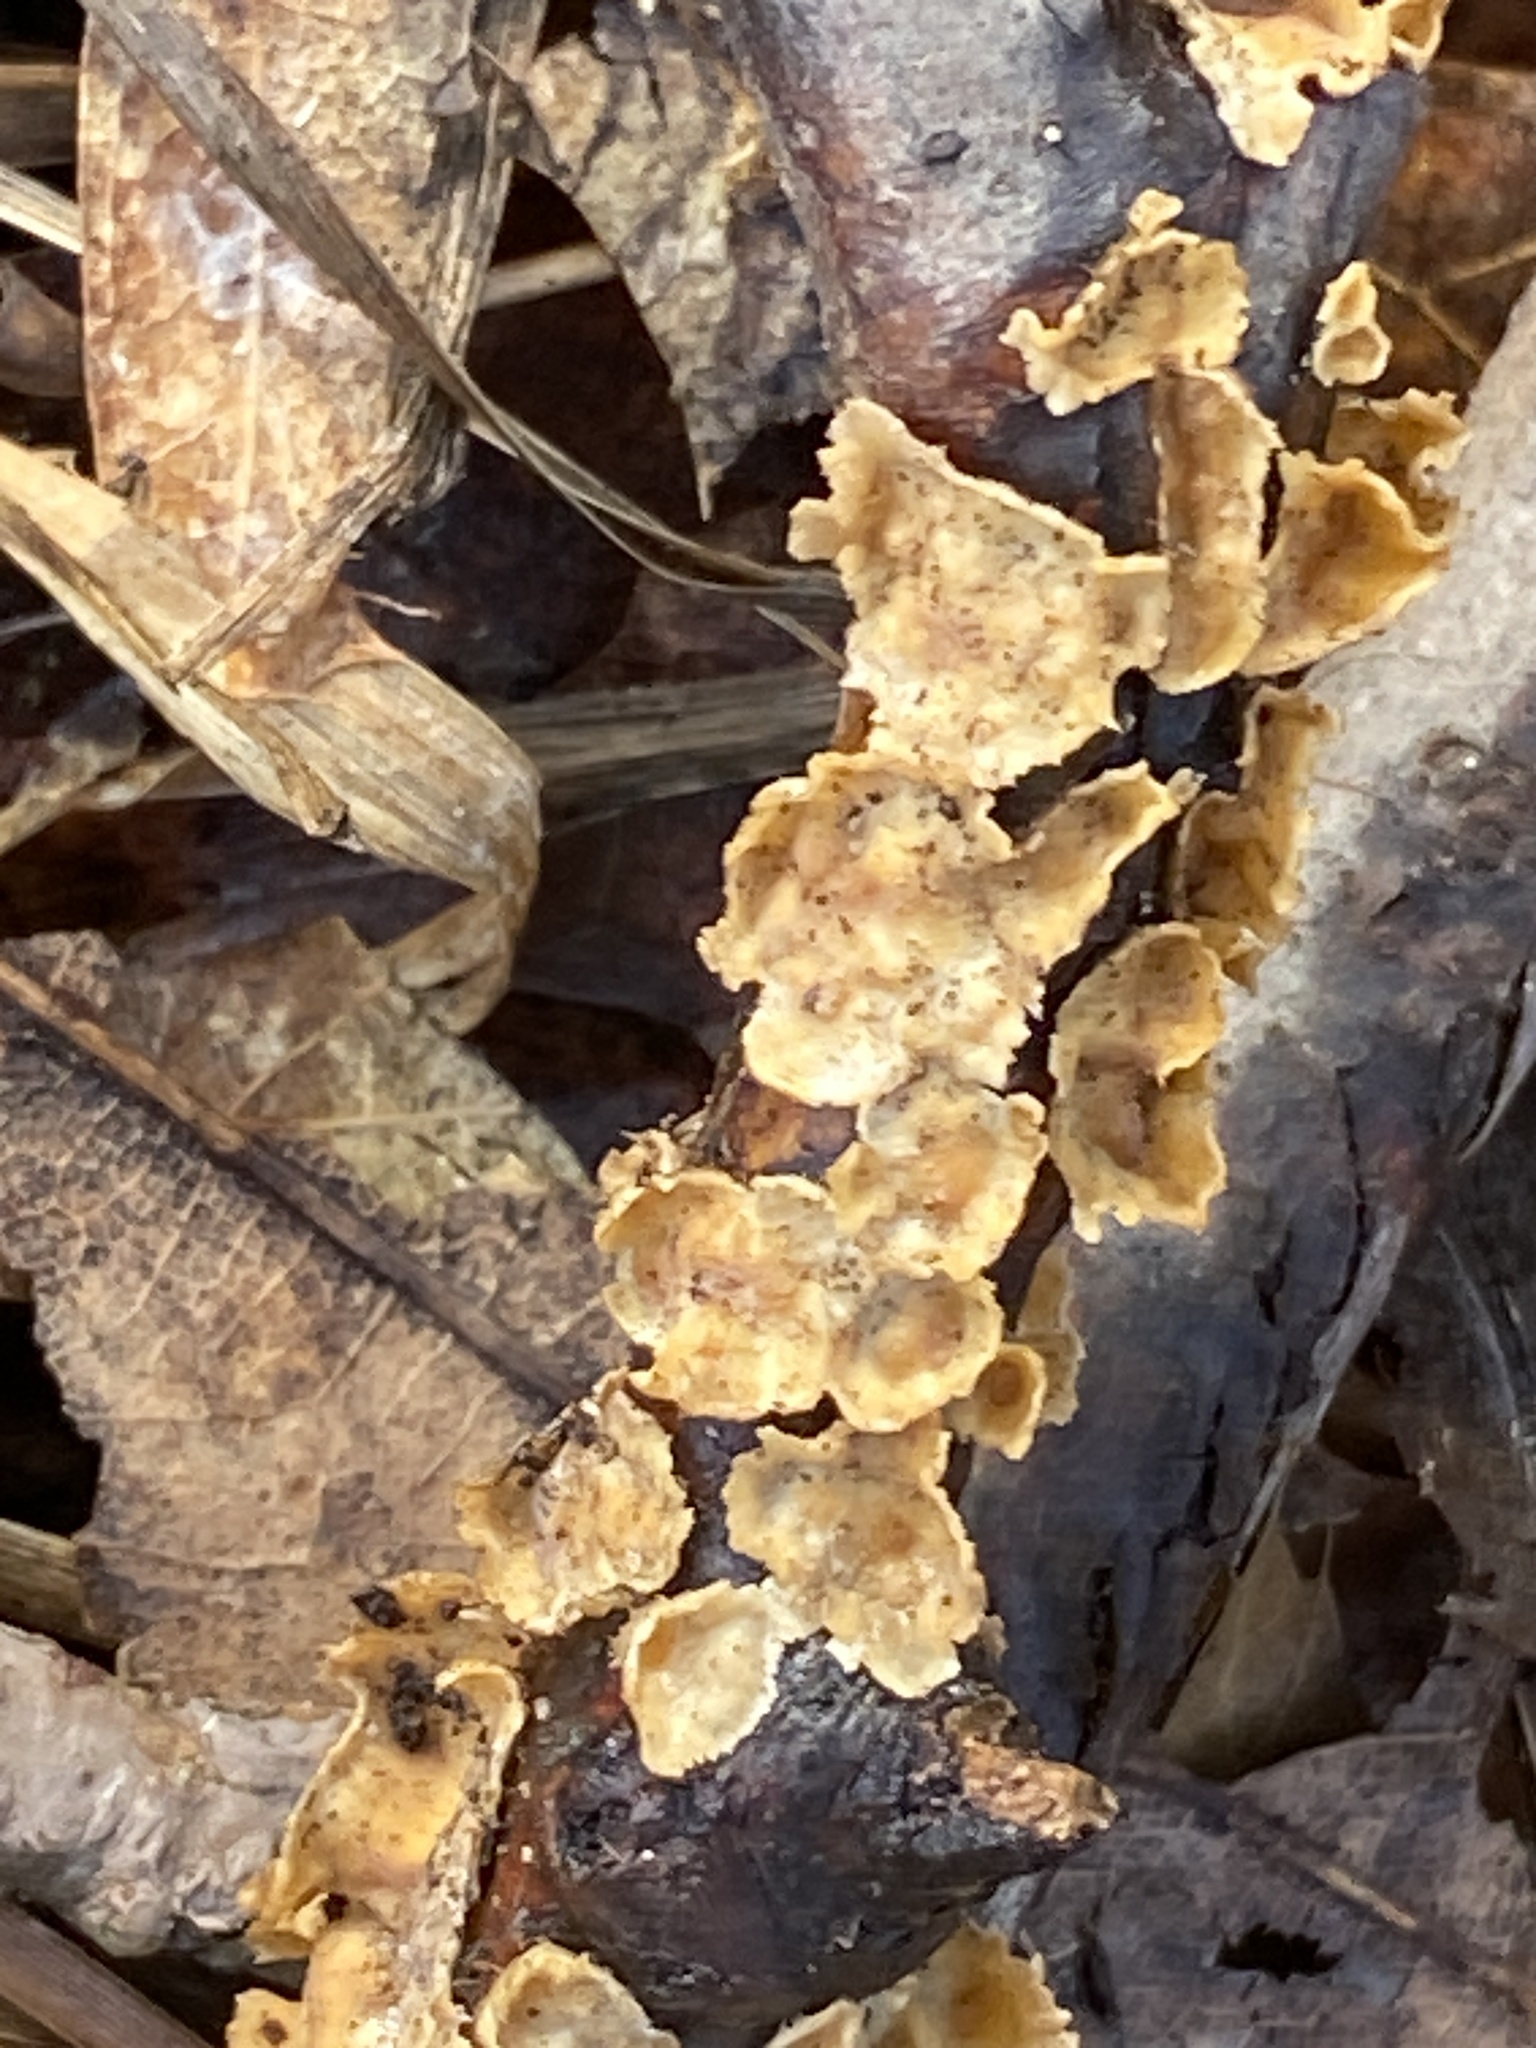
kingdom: Fungi
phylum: Basidiomycota
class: Agaricomycetes
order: Russulales
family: Stereaceae
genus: Stereum
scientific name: Stereum complicatum
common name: Crowded parchment
